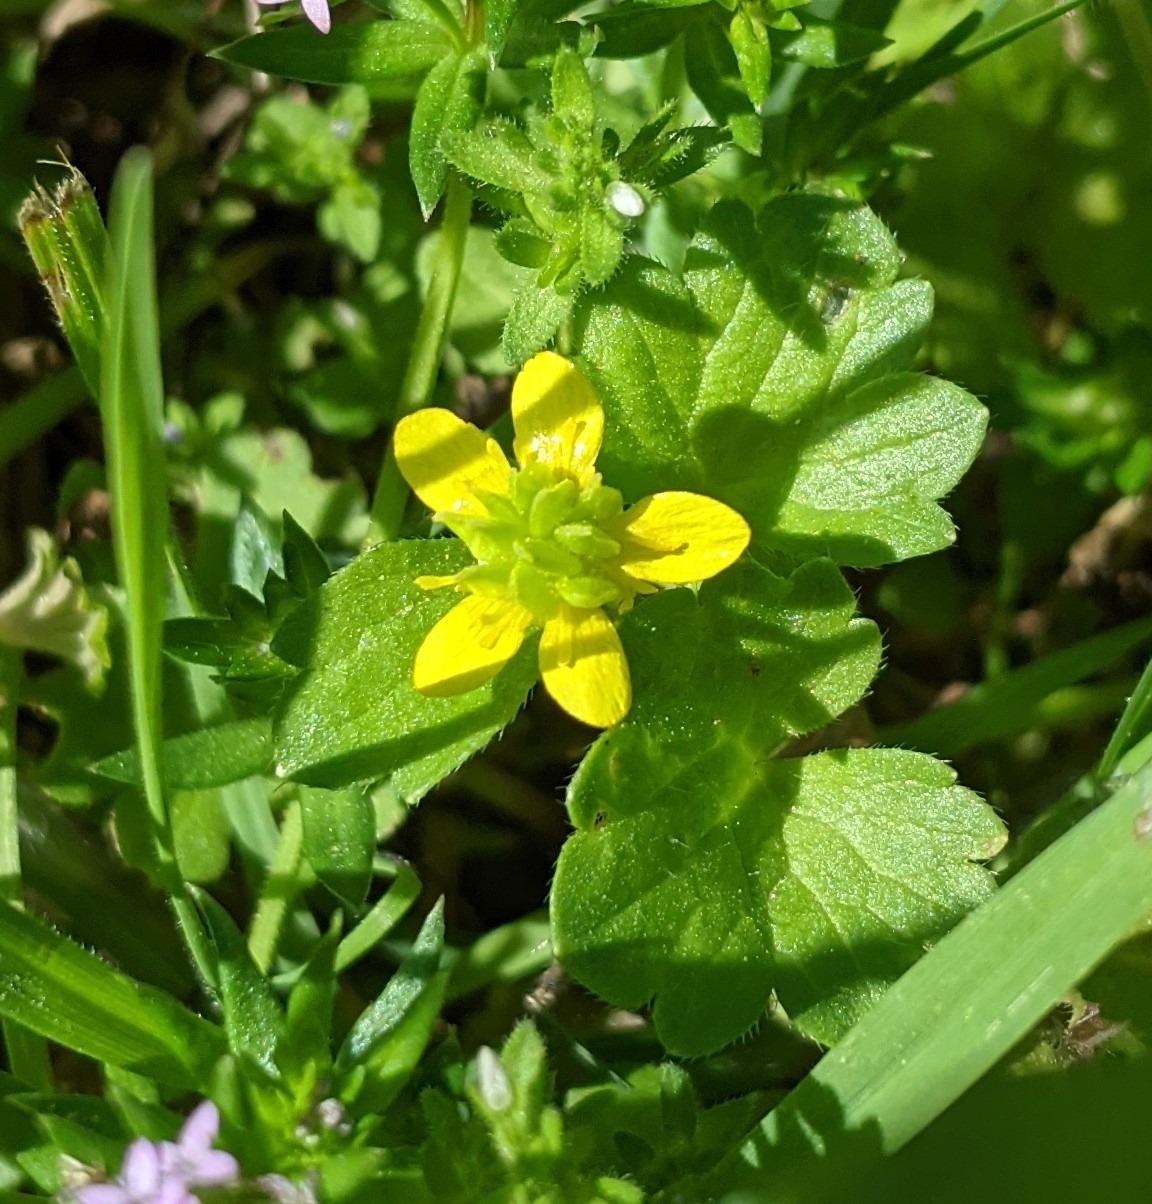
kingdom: Plantae
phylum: Tracheophyta
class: Magnoliopsida
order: Ranunculales
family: Ranunculaceae
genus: Ranunculus
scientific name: Ranunculus muricatus
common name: Rough-fruited buttercup
